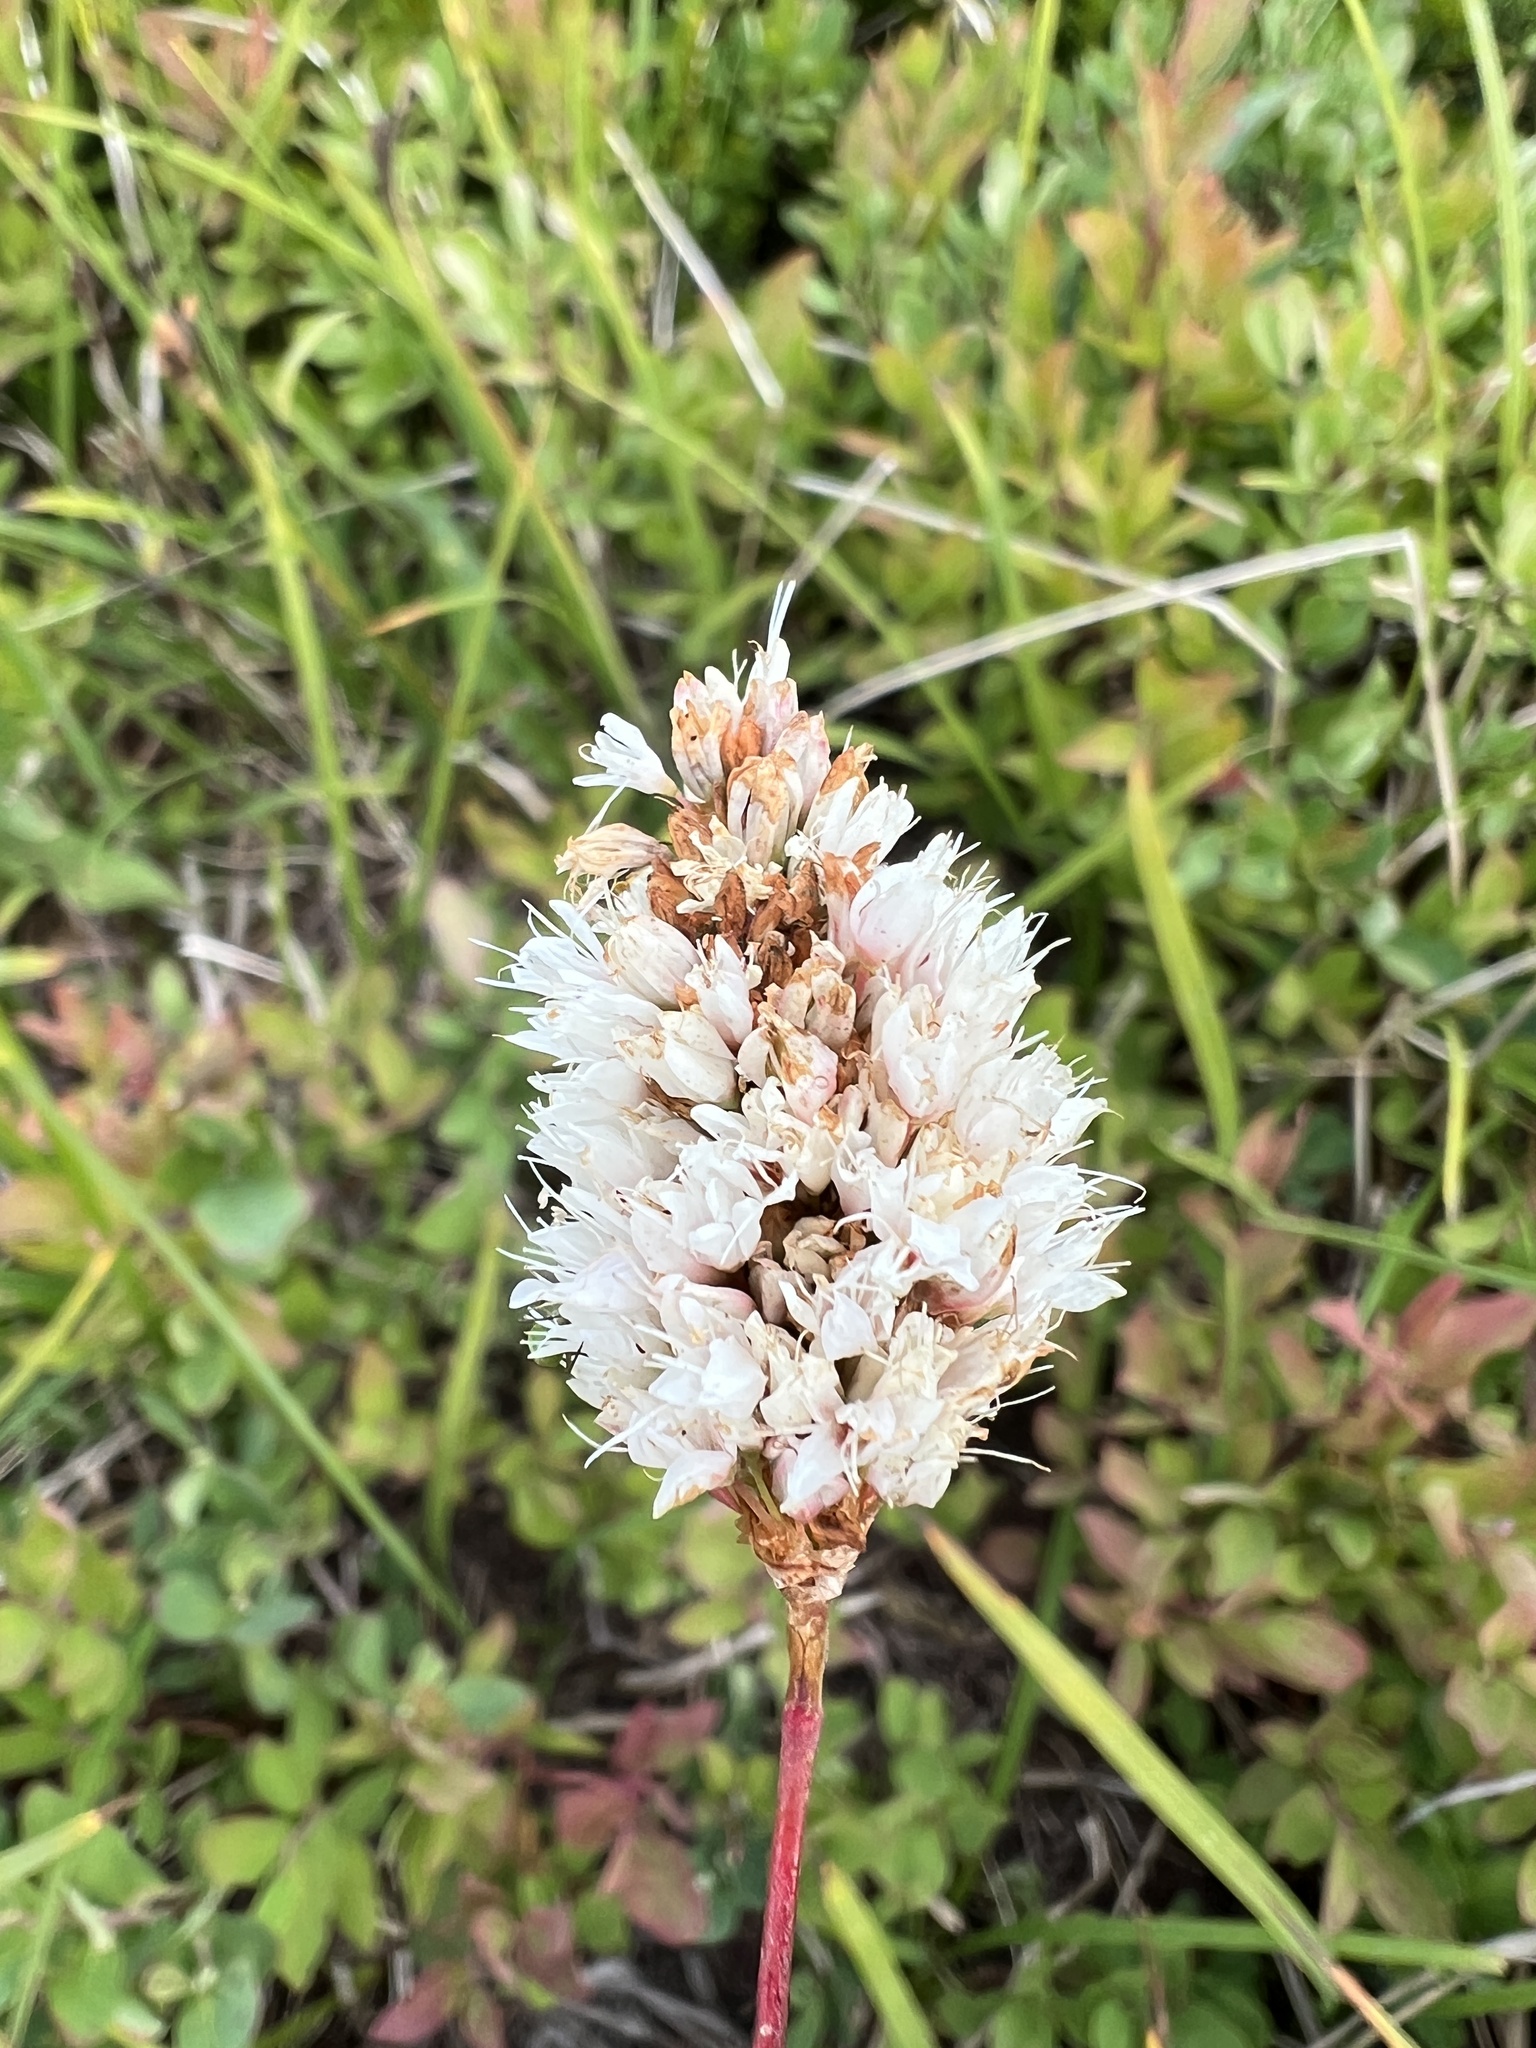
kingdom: Plantae
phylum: Tracheophyta
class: Magnoliopsida
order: Caryophyllales
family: Polygonaceae
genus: Bistorta
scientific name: Bistorta bistortoides
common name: American bistort
